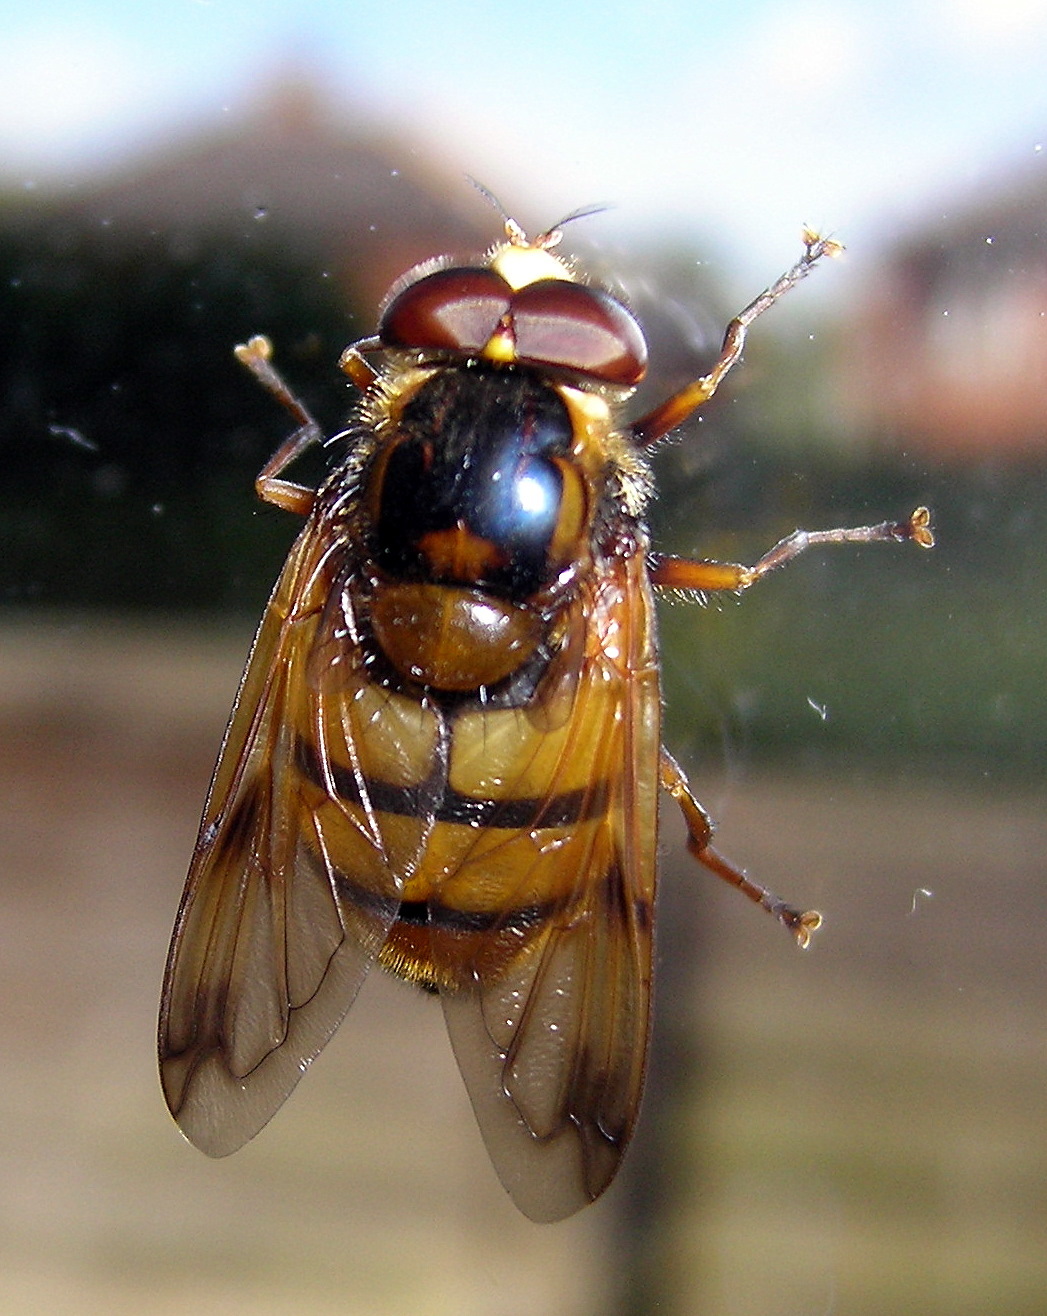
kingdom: Animalia
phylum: Arthropoda
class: Insecta
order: Diptera
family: Syrphidae
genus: Volucella
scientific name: Volucella inanis
